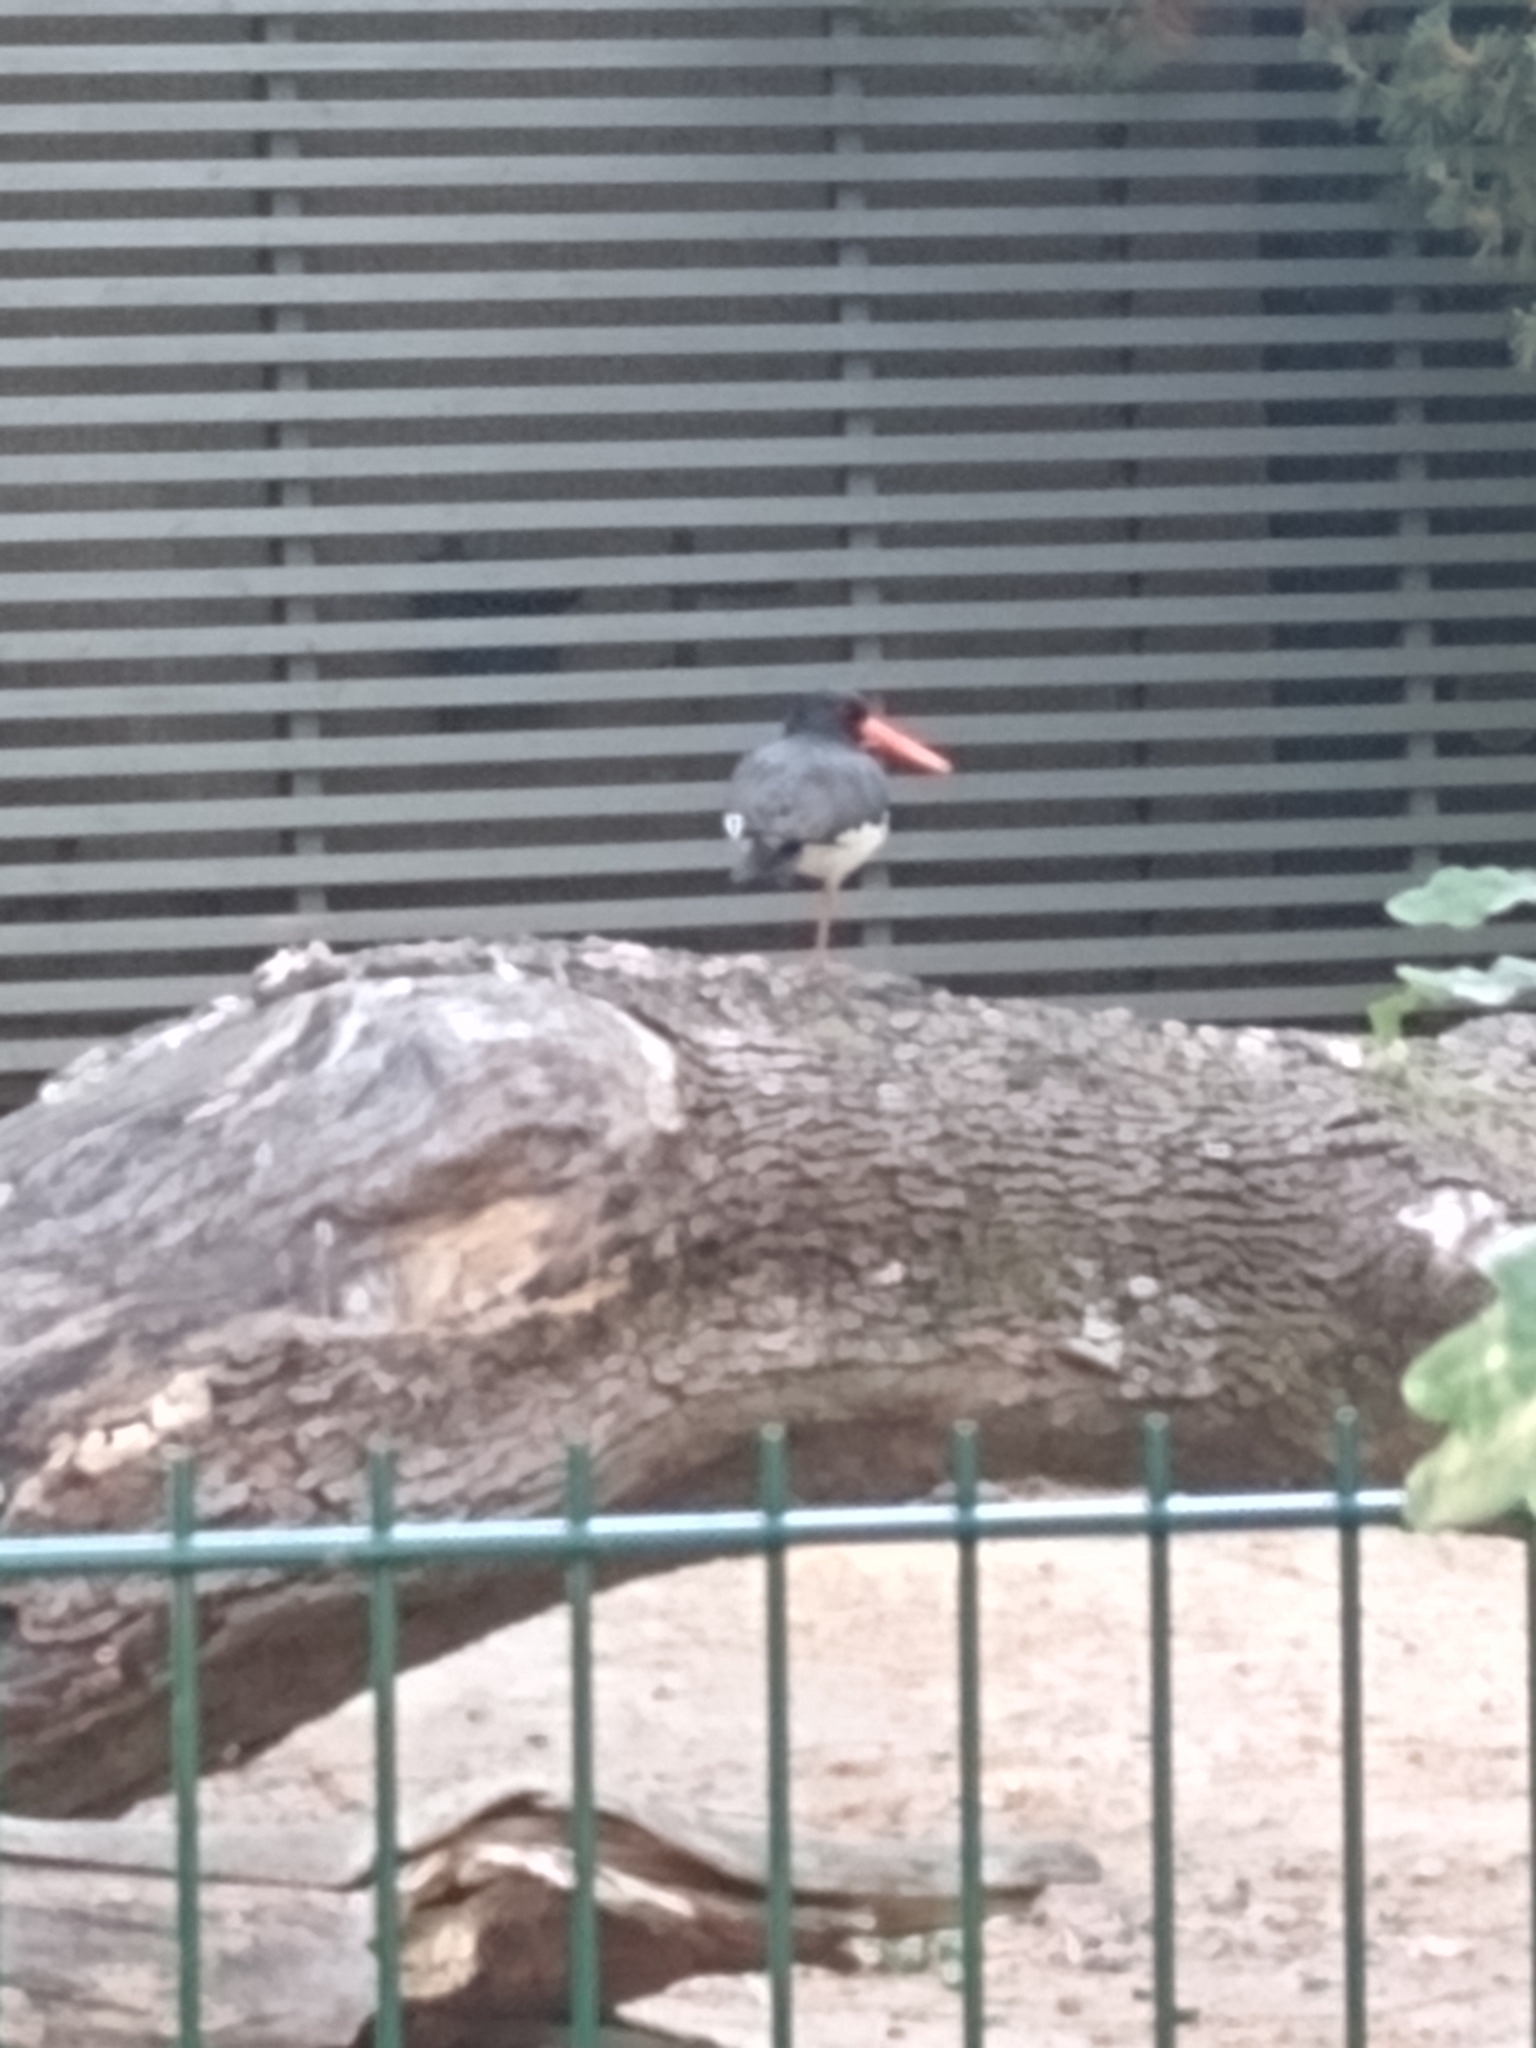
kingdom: Animalia
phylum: Chordata
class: Aves
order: Charadriiformes
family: Haematopodidae
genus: Haematopus
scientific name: Haematopus ostralegus
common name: Eurasian oystercatcher
